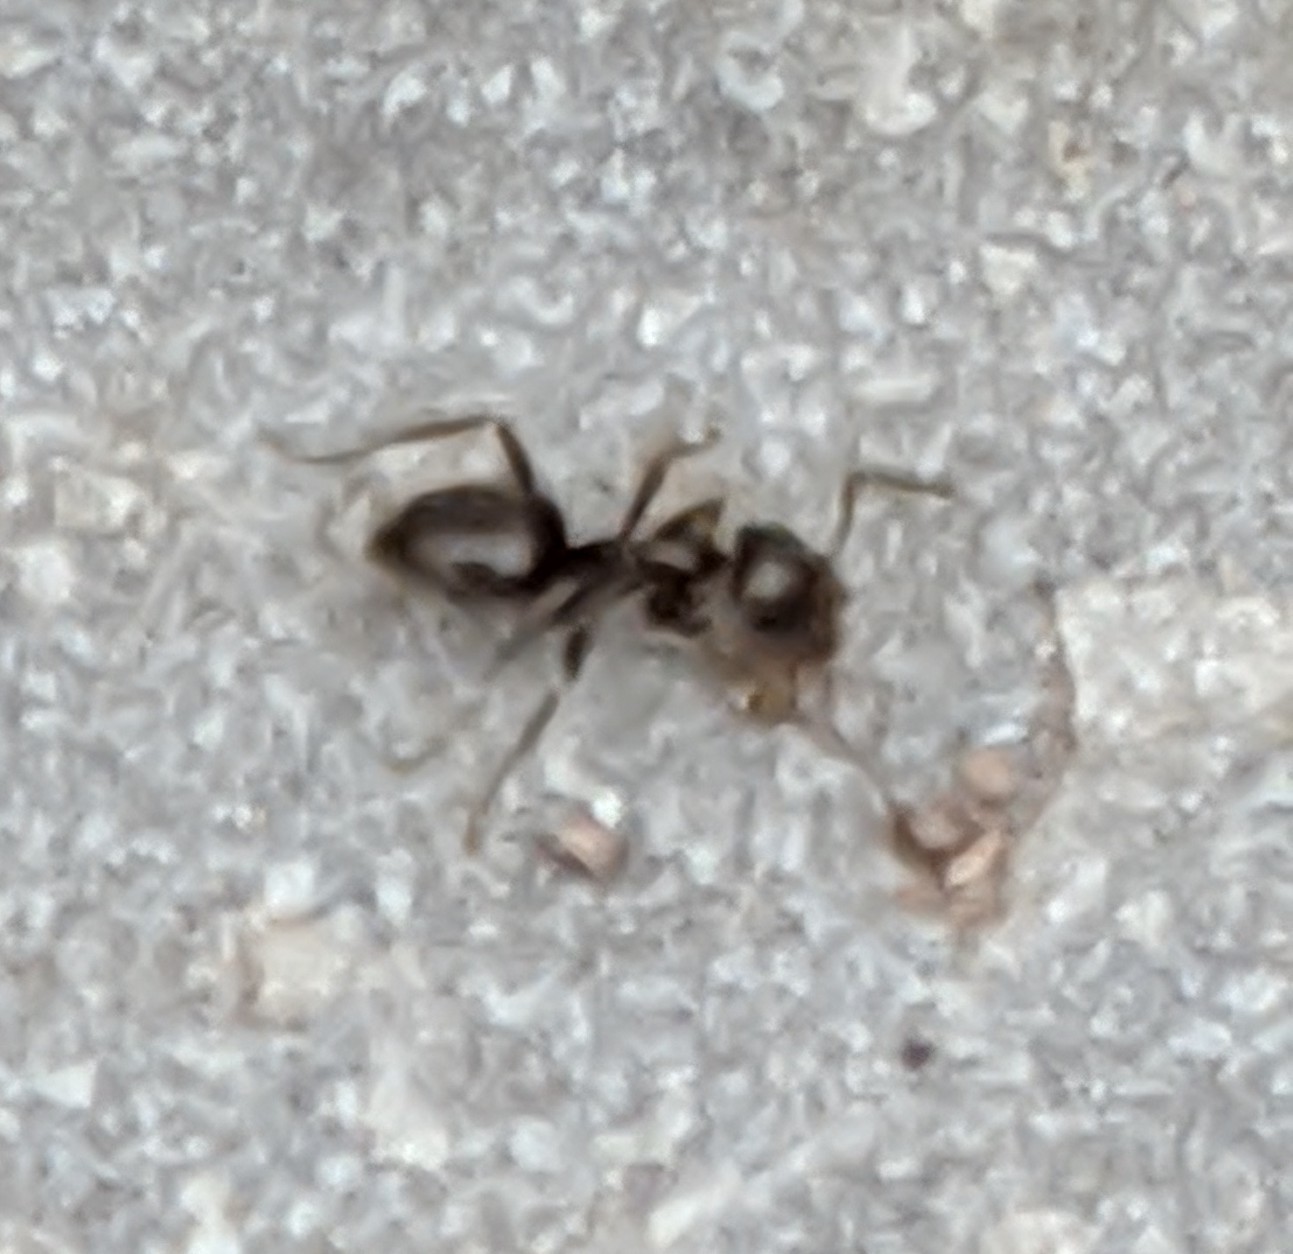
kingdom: Animalia
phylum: Arthropoda
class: Insecta
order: Hymenoptera
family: Formicidae
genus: Lasius
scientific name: Lasius niger
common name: Small black ant
